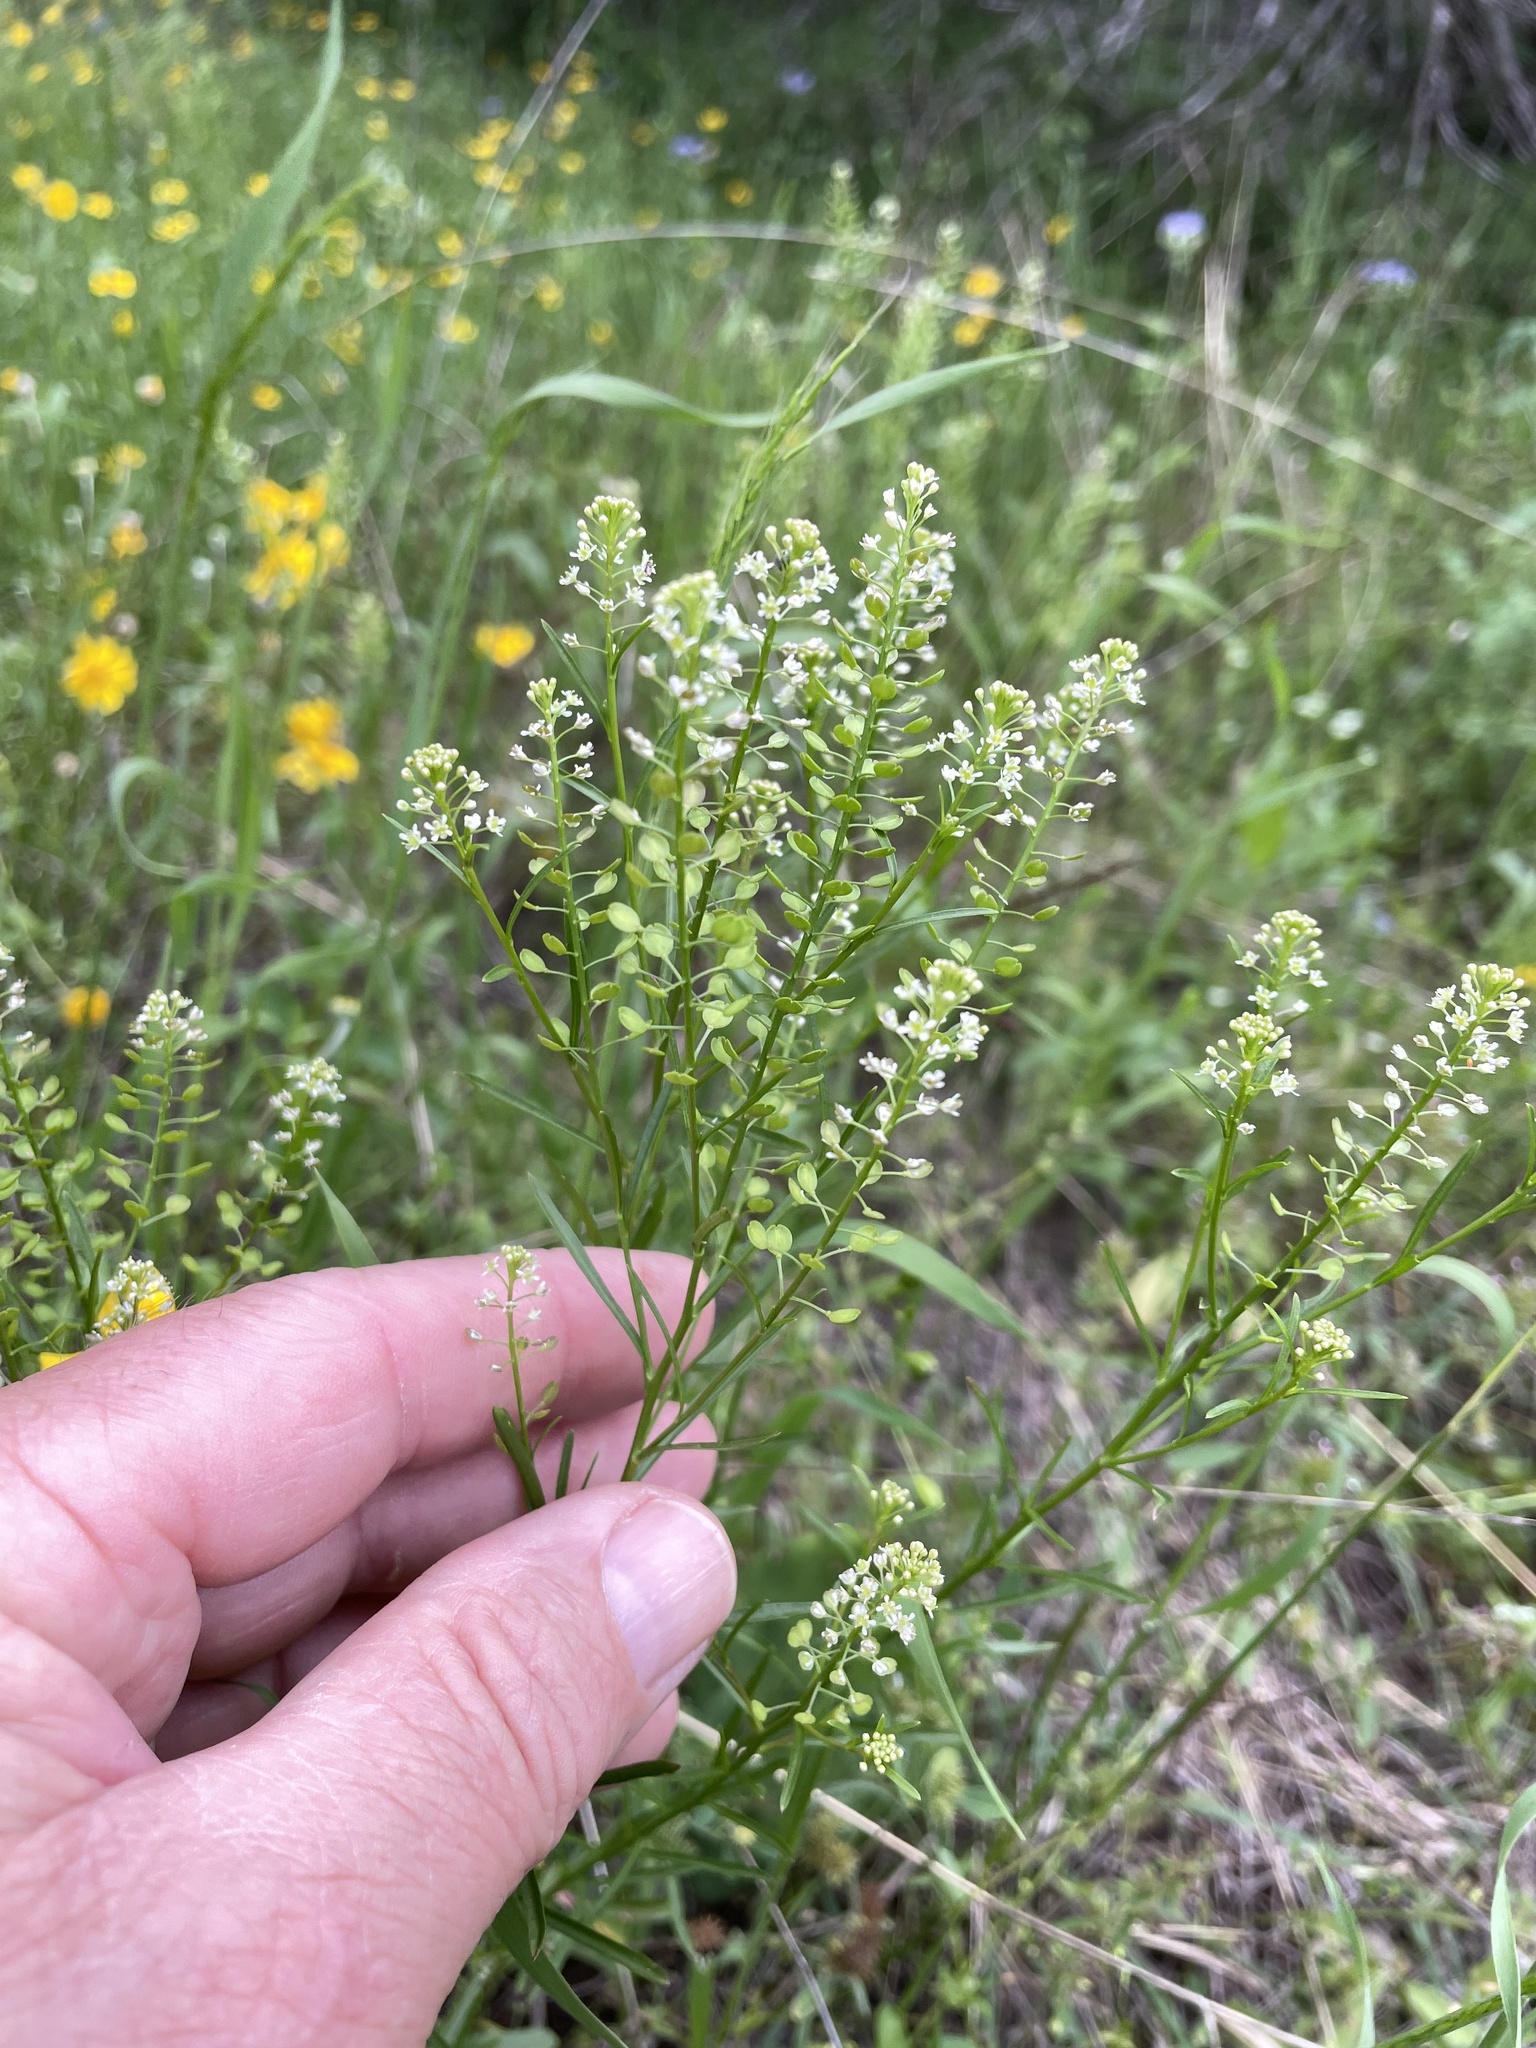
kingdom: Plantae
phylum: Tracheophyta
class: Magnoliopsida
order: Brassicales
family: Brassicaceae
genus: Lepidium
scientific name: Lepidium virginicum
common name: Least pepperwort
